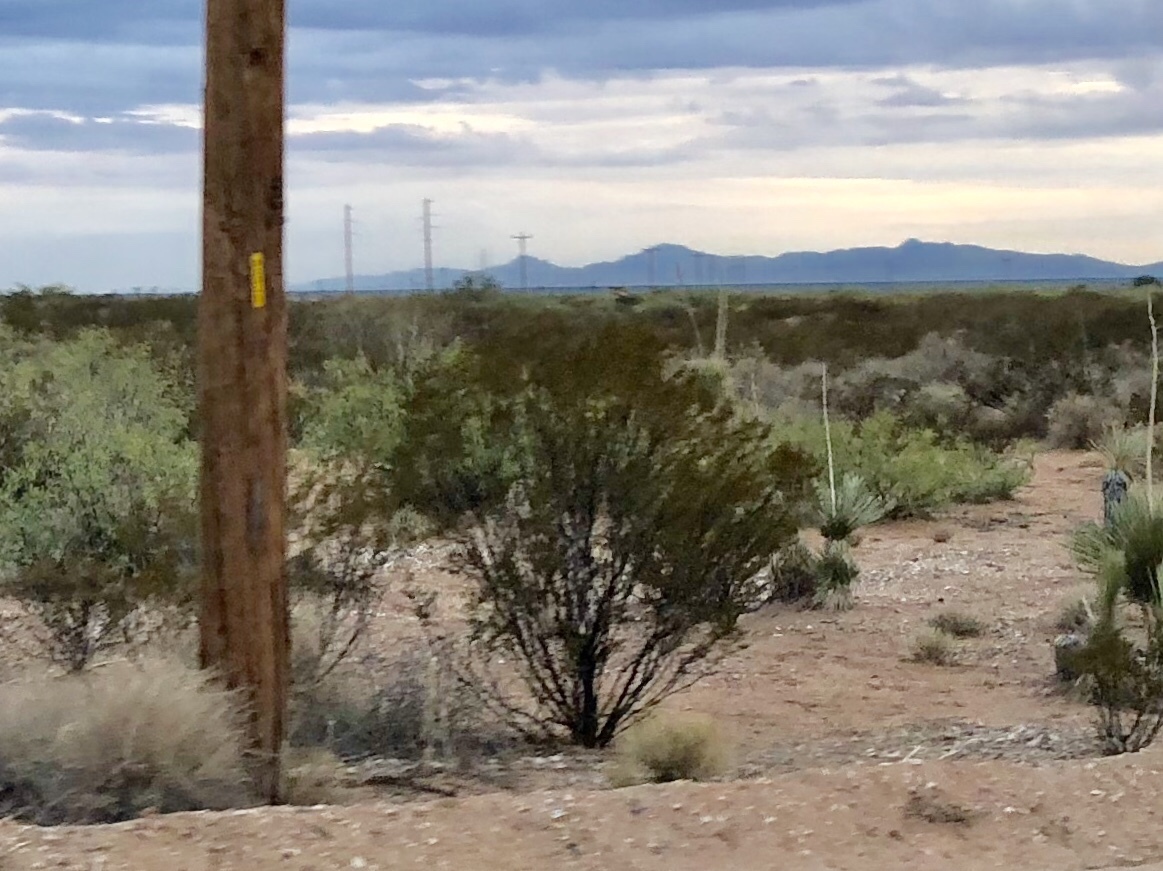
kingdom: Plantae
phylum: Tracheophyta
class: Magnoliopsida
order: Zygophyllales
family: Zygophyllaceae
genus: Larrea
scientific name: Larrea tridentata
